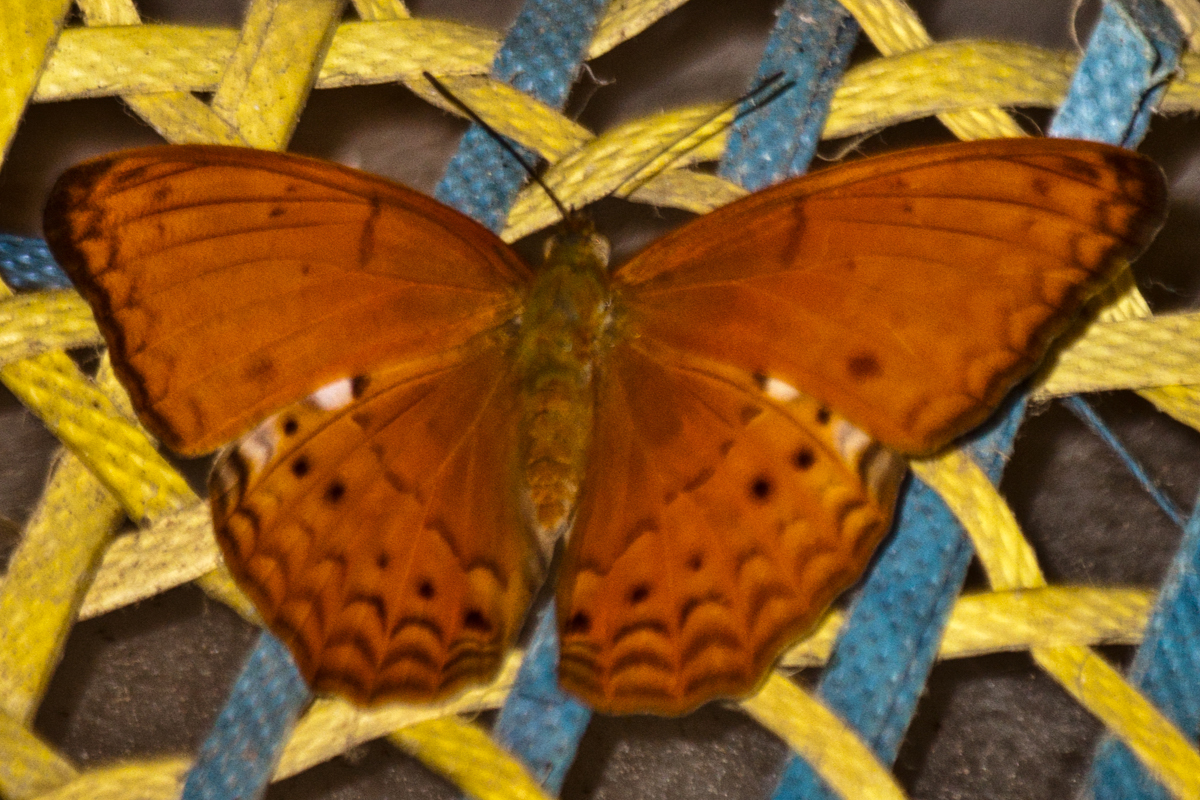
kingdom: Animalia
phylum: Arthropoda
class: Insecta
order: Lepidoptera
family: Nymphalidae
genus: Cirrochroa
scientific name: Cirrochroa tyche
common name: Common yeoman
